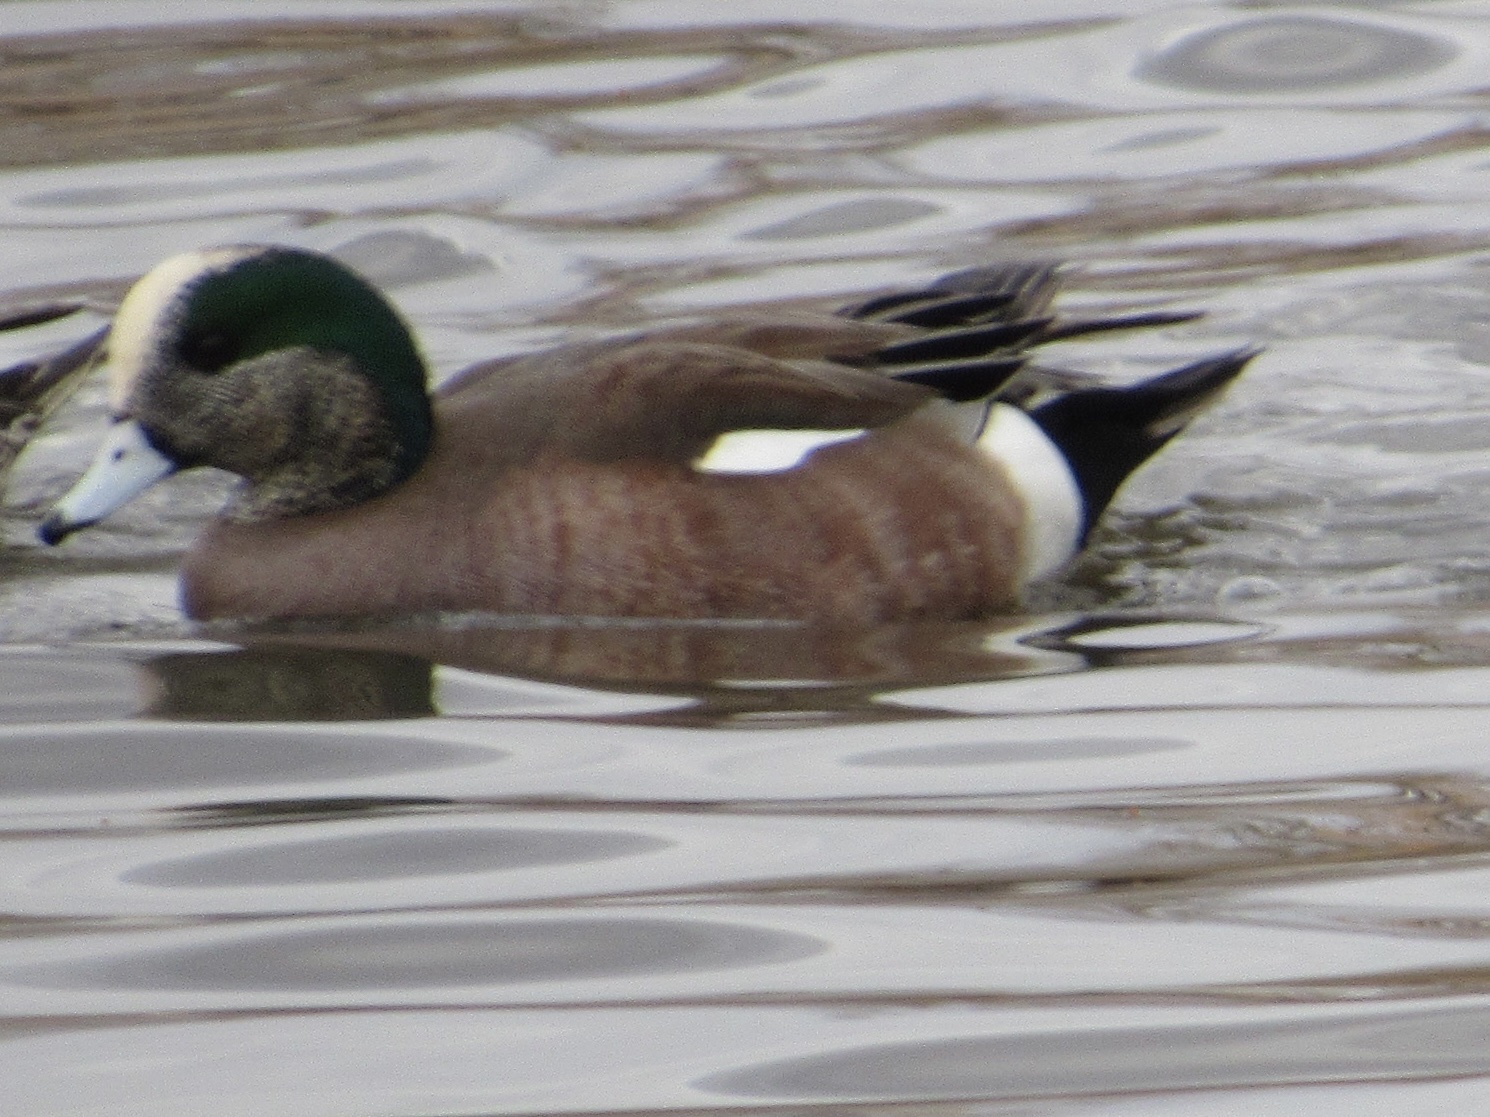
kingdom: Animalia
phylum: Chordata
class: Aves
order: Anseriformes
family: Anatidae
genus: Mareca
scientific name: Mareca americana
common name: American wigeon
